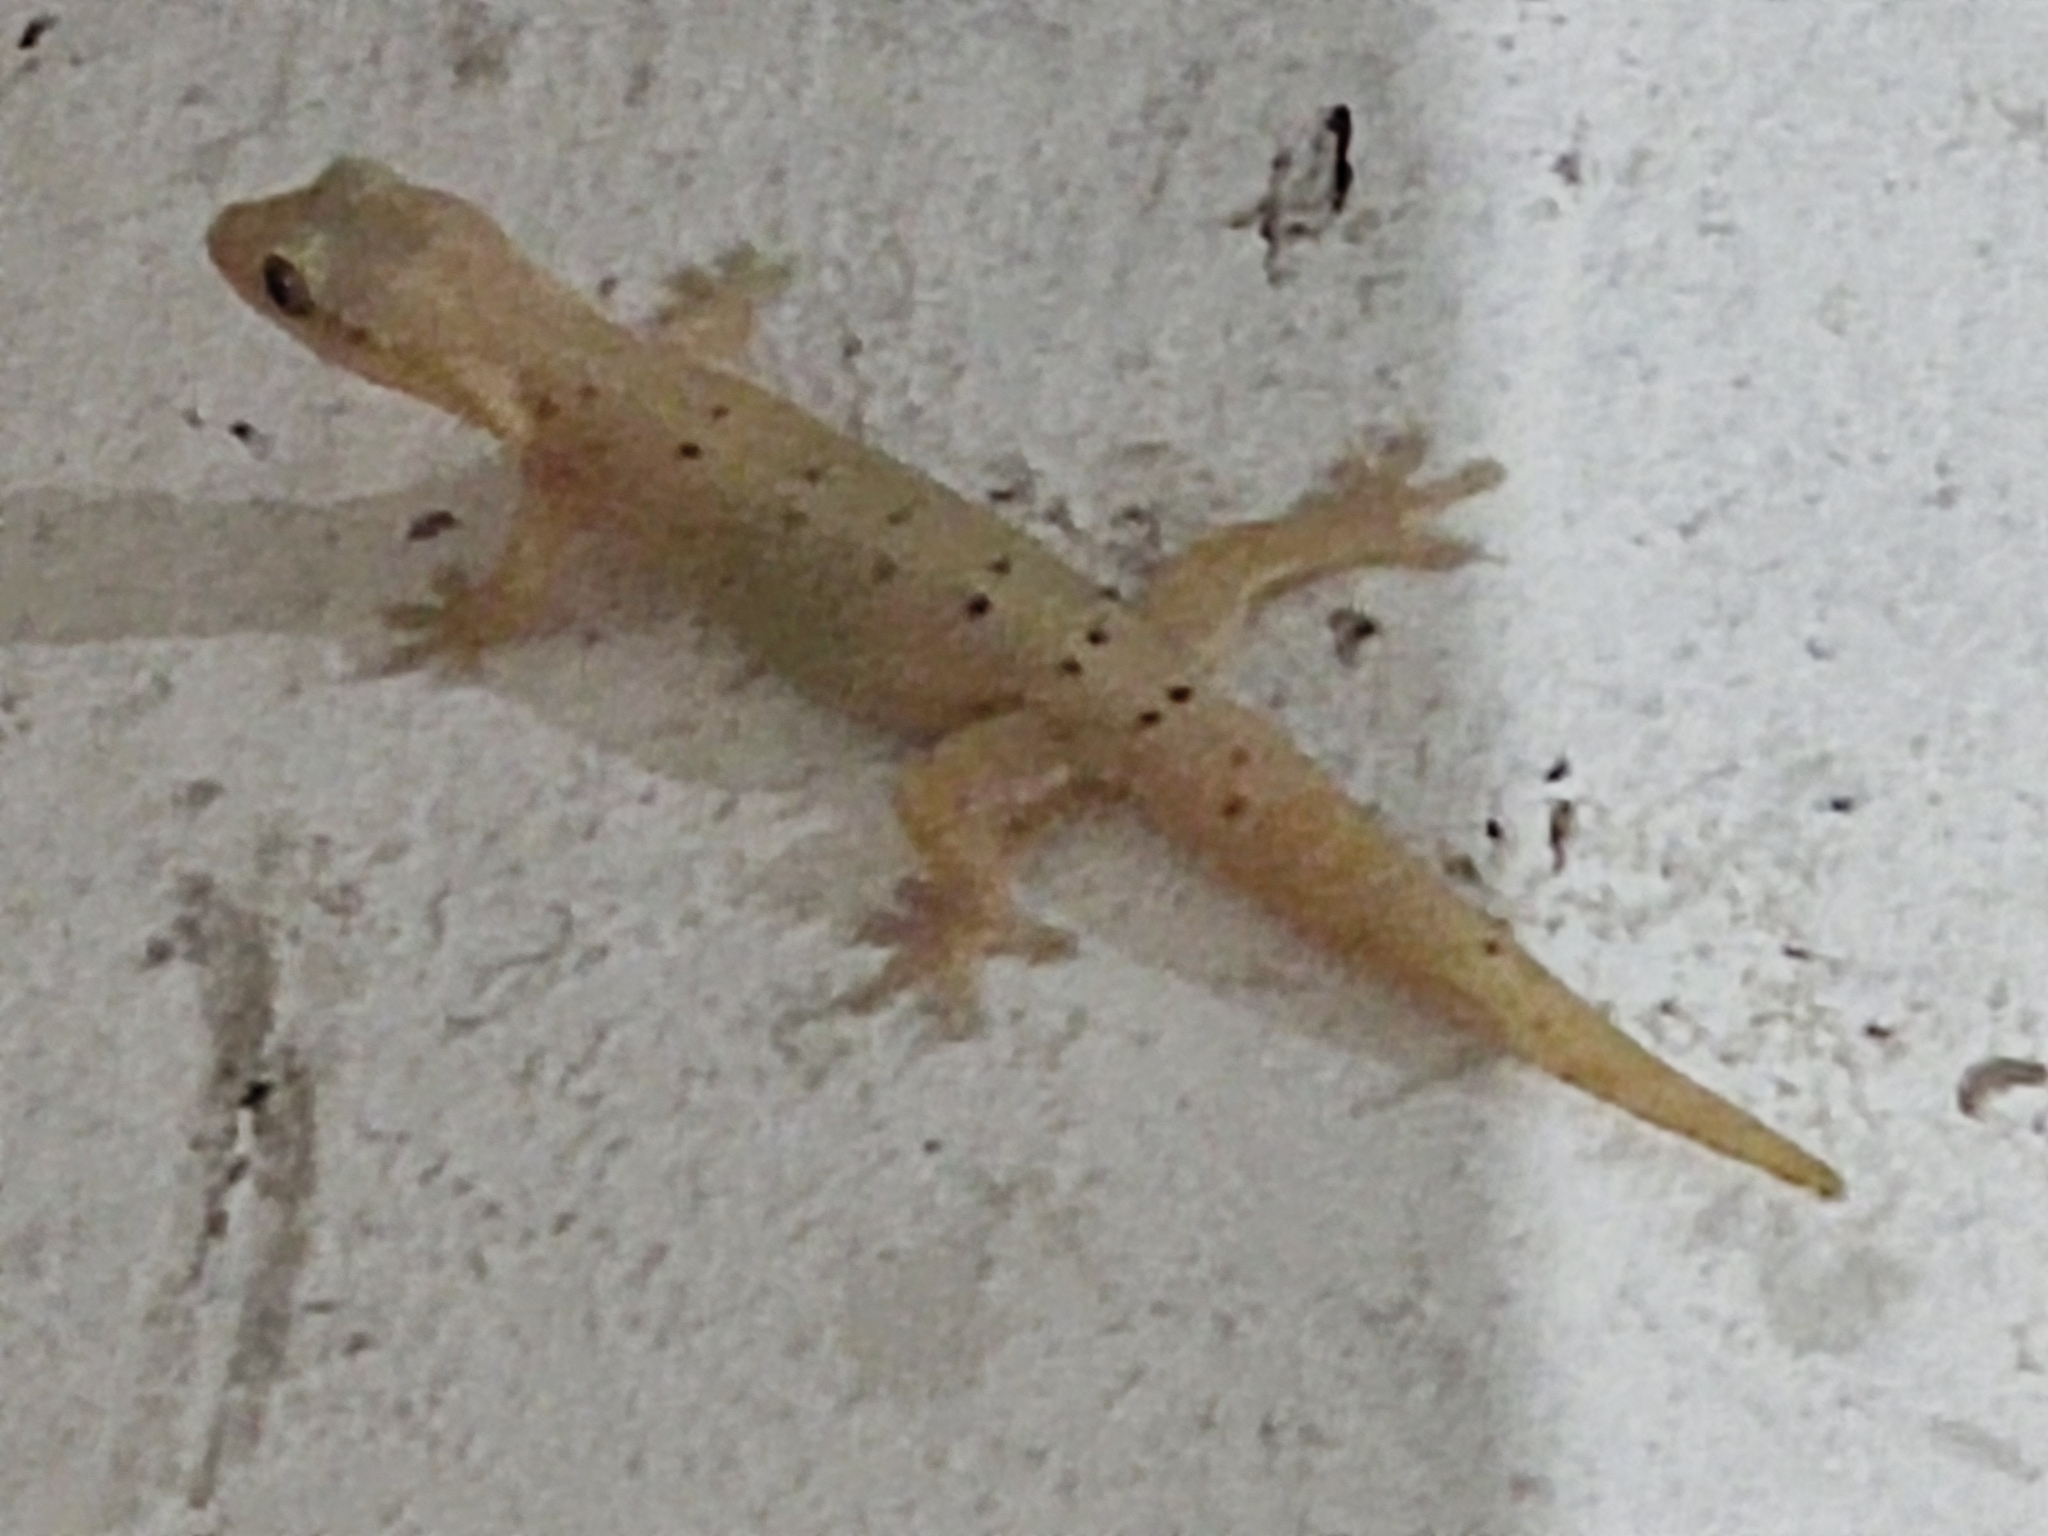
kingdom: Animalia
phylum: Chordata
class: Squamata
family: Gekkonidae
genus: Lepidodactylus
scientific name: Lepidodactylus lugubris
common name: Mourning gecko
